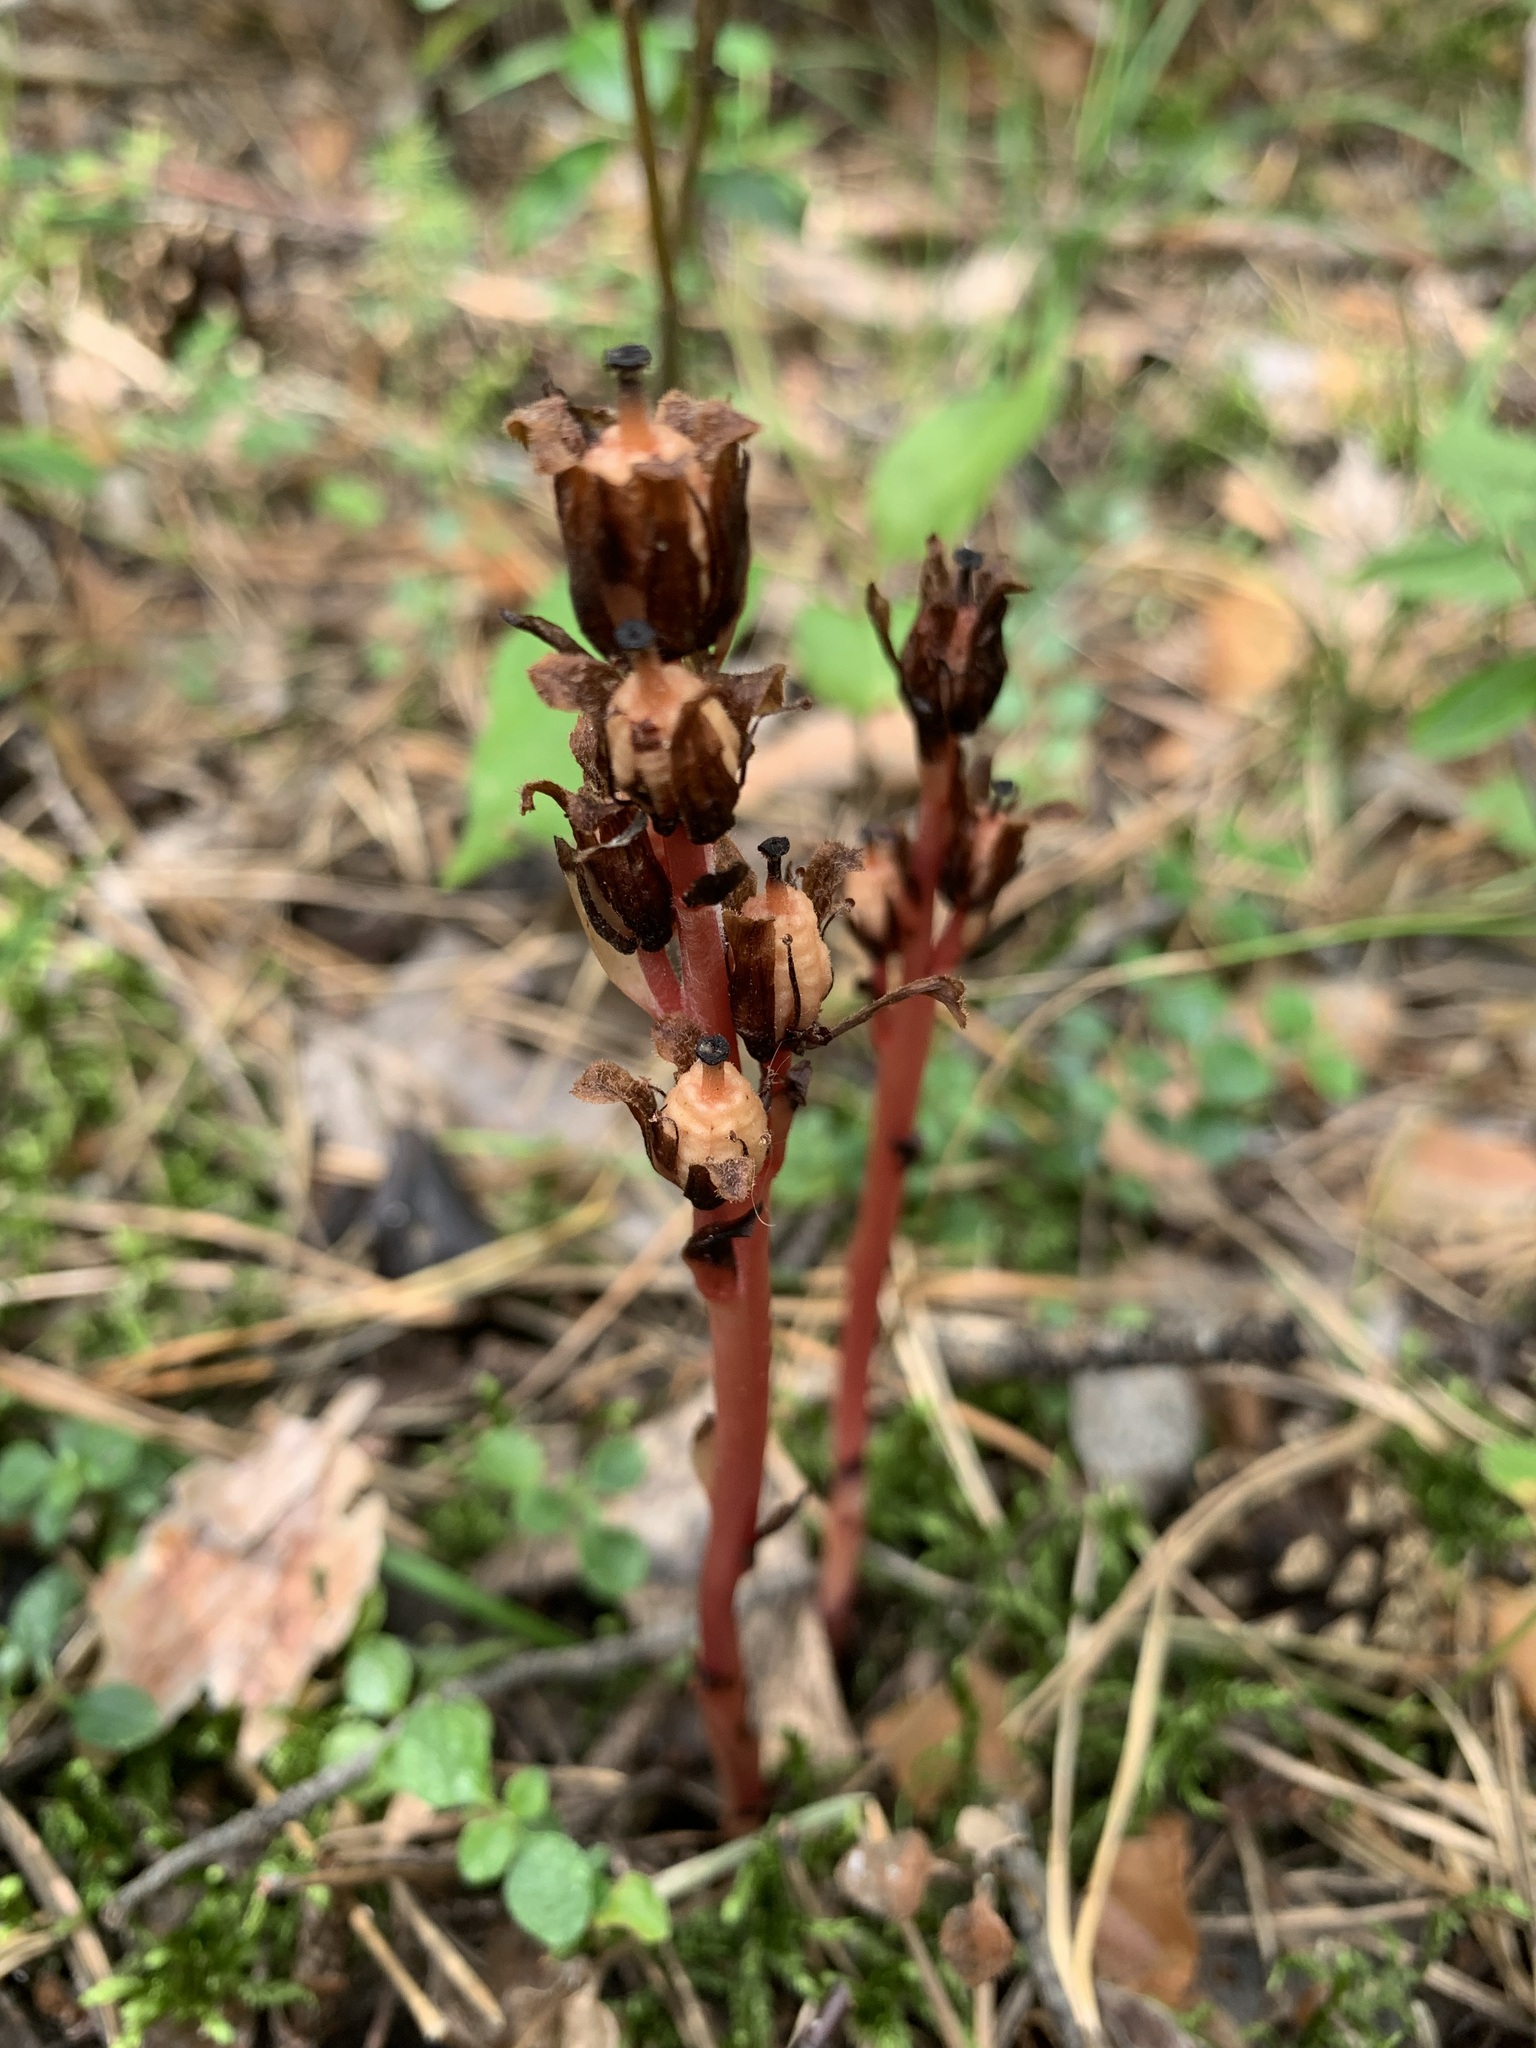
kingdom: Plantae
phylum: Tracheophyta
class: Magnoliopsida
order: Ericales
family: Ericaceae
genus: Hypopitys
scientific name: Hypopitys monotropa
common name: Yellow bird's-nest
